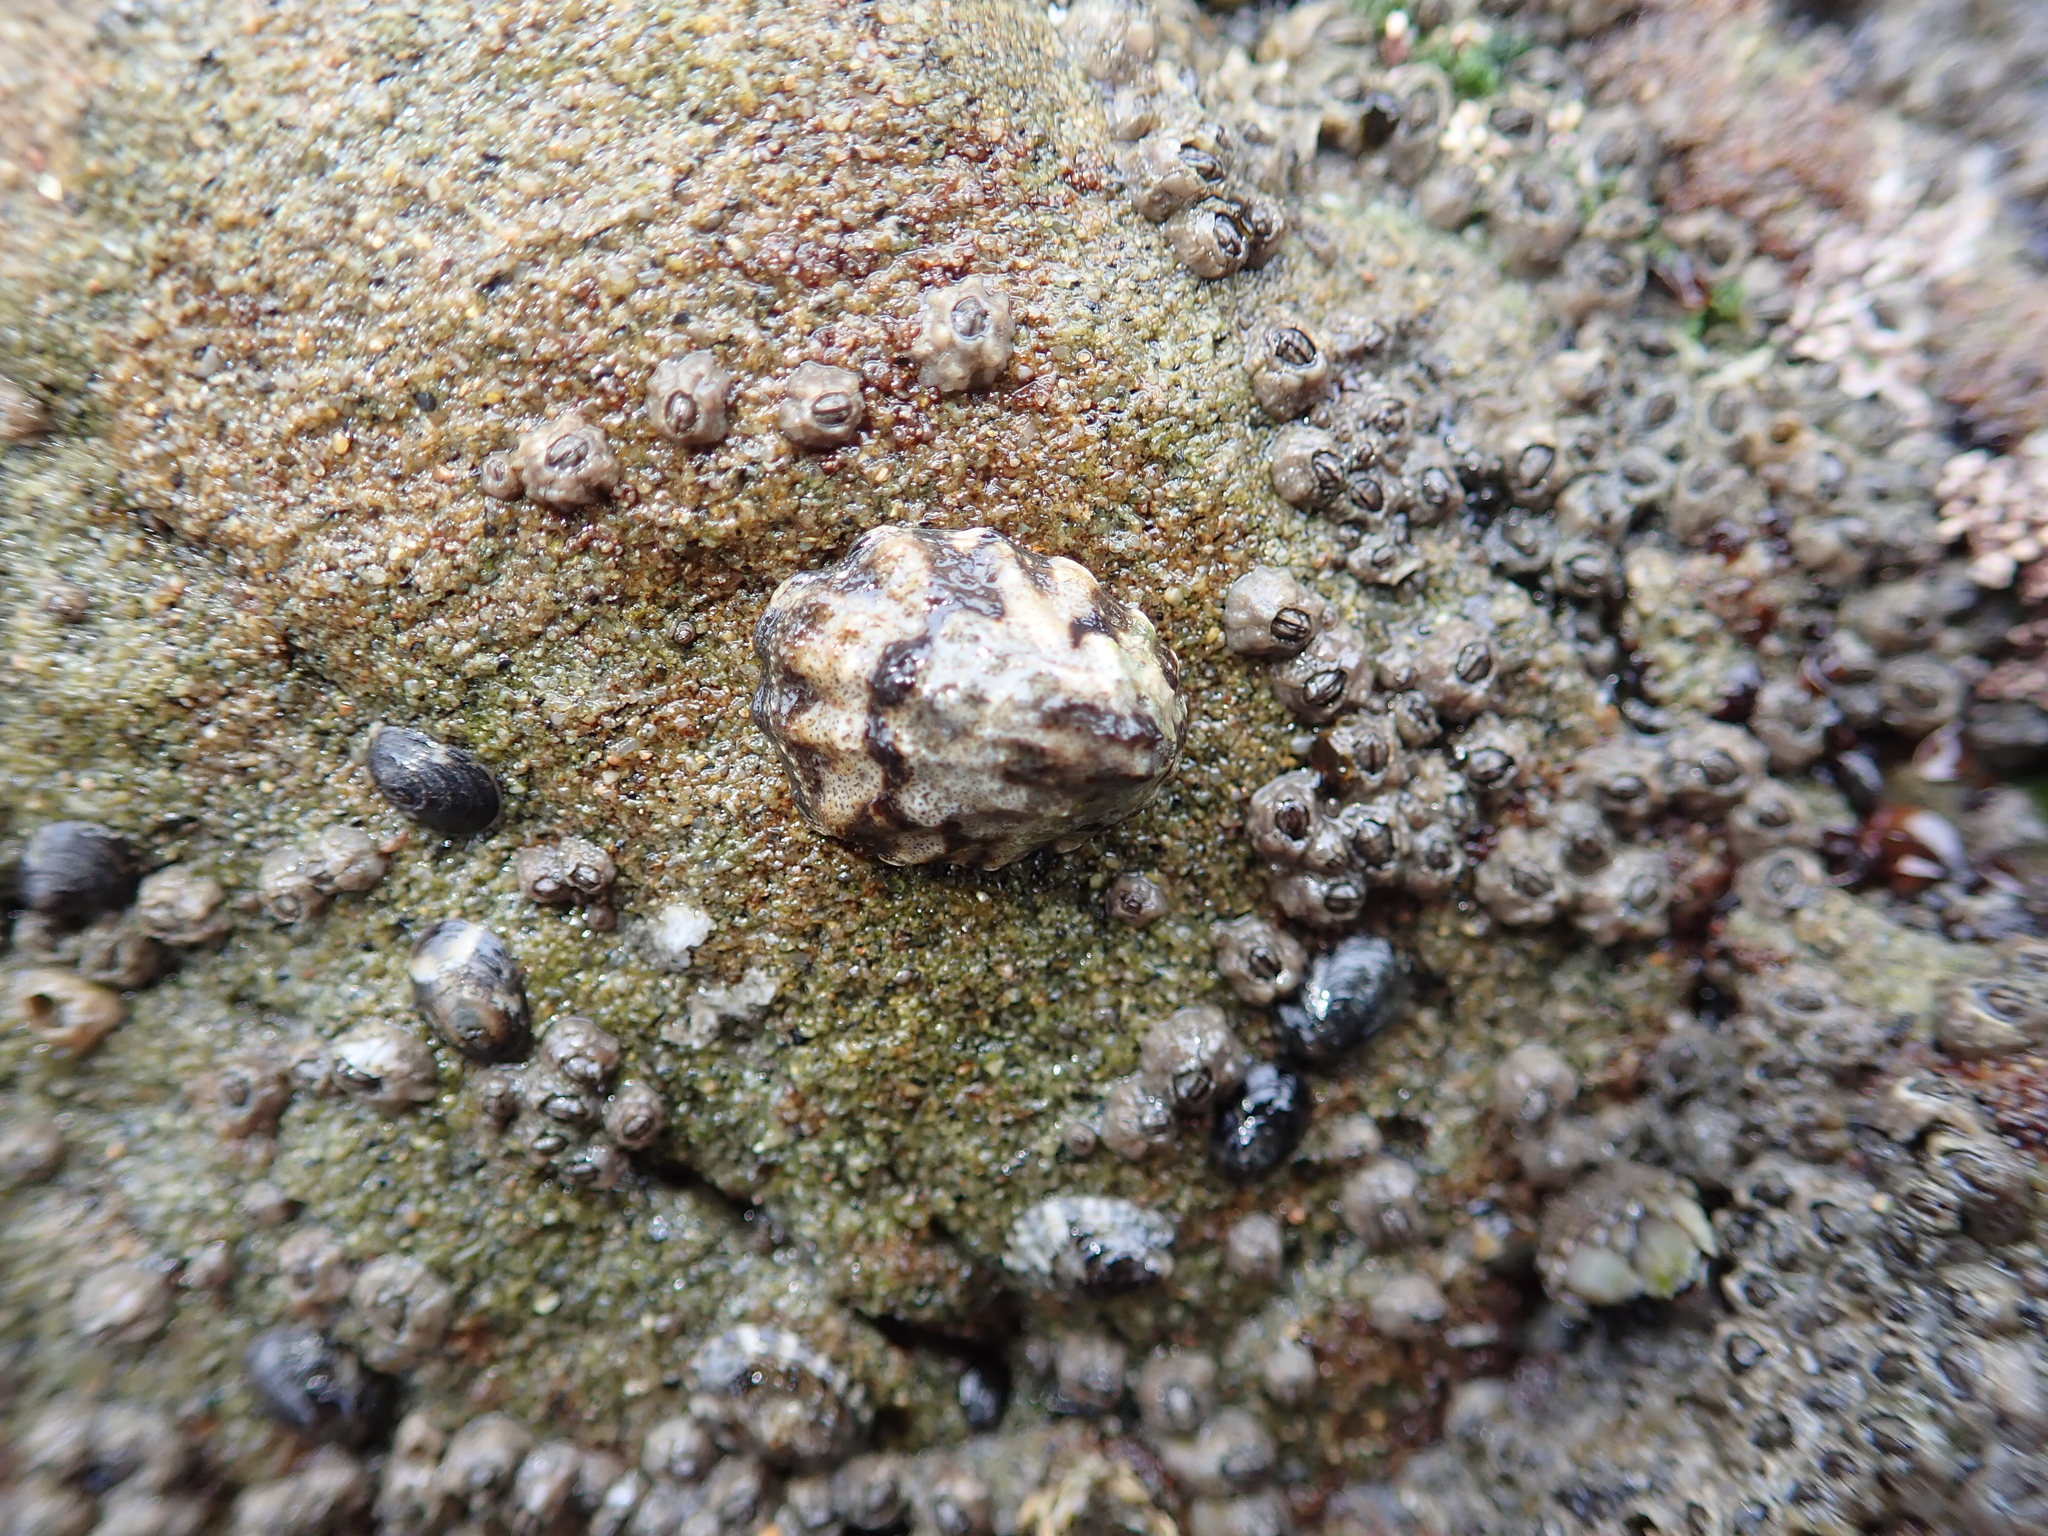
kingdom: Animalia
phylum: Mollusca
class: Gastropoda
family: Lottiidae
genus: Lottia
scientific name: Lottia digitalis
